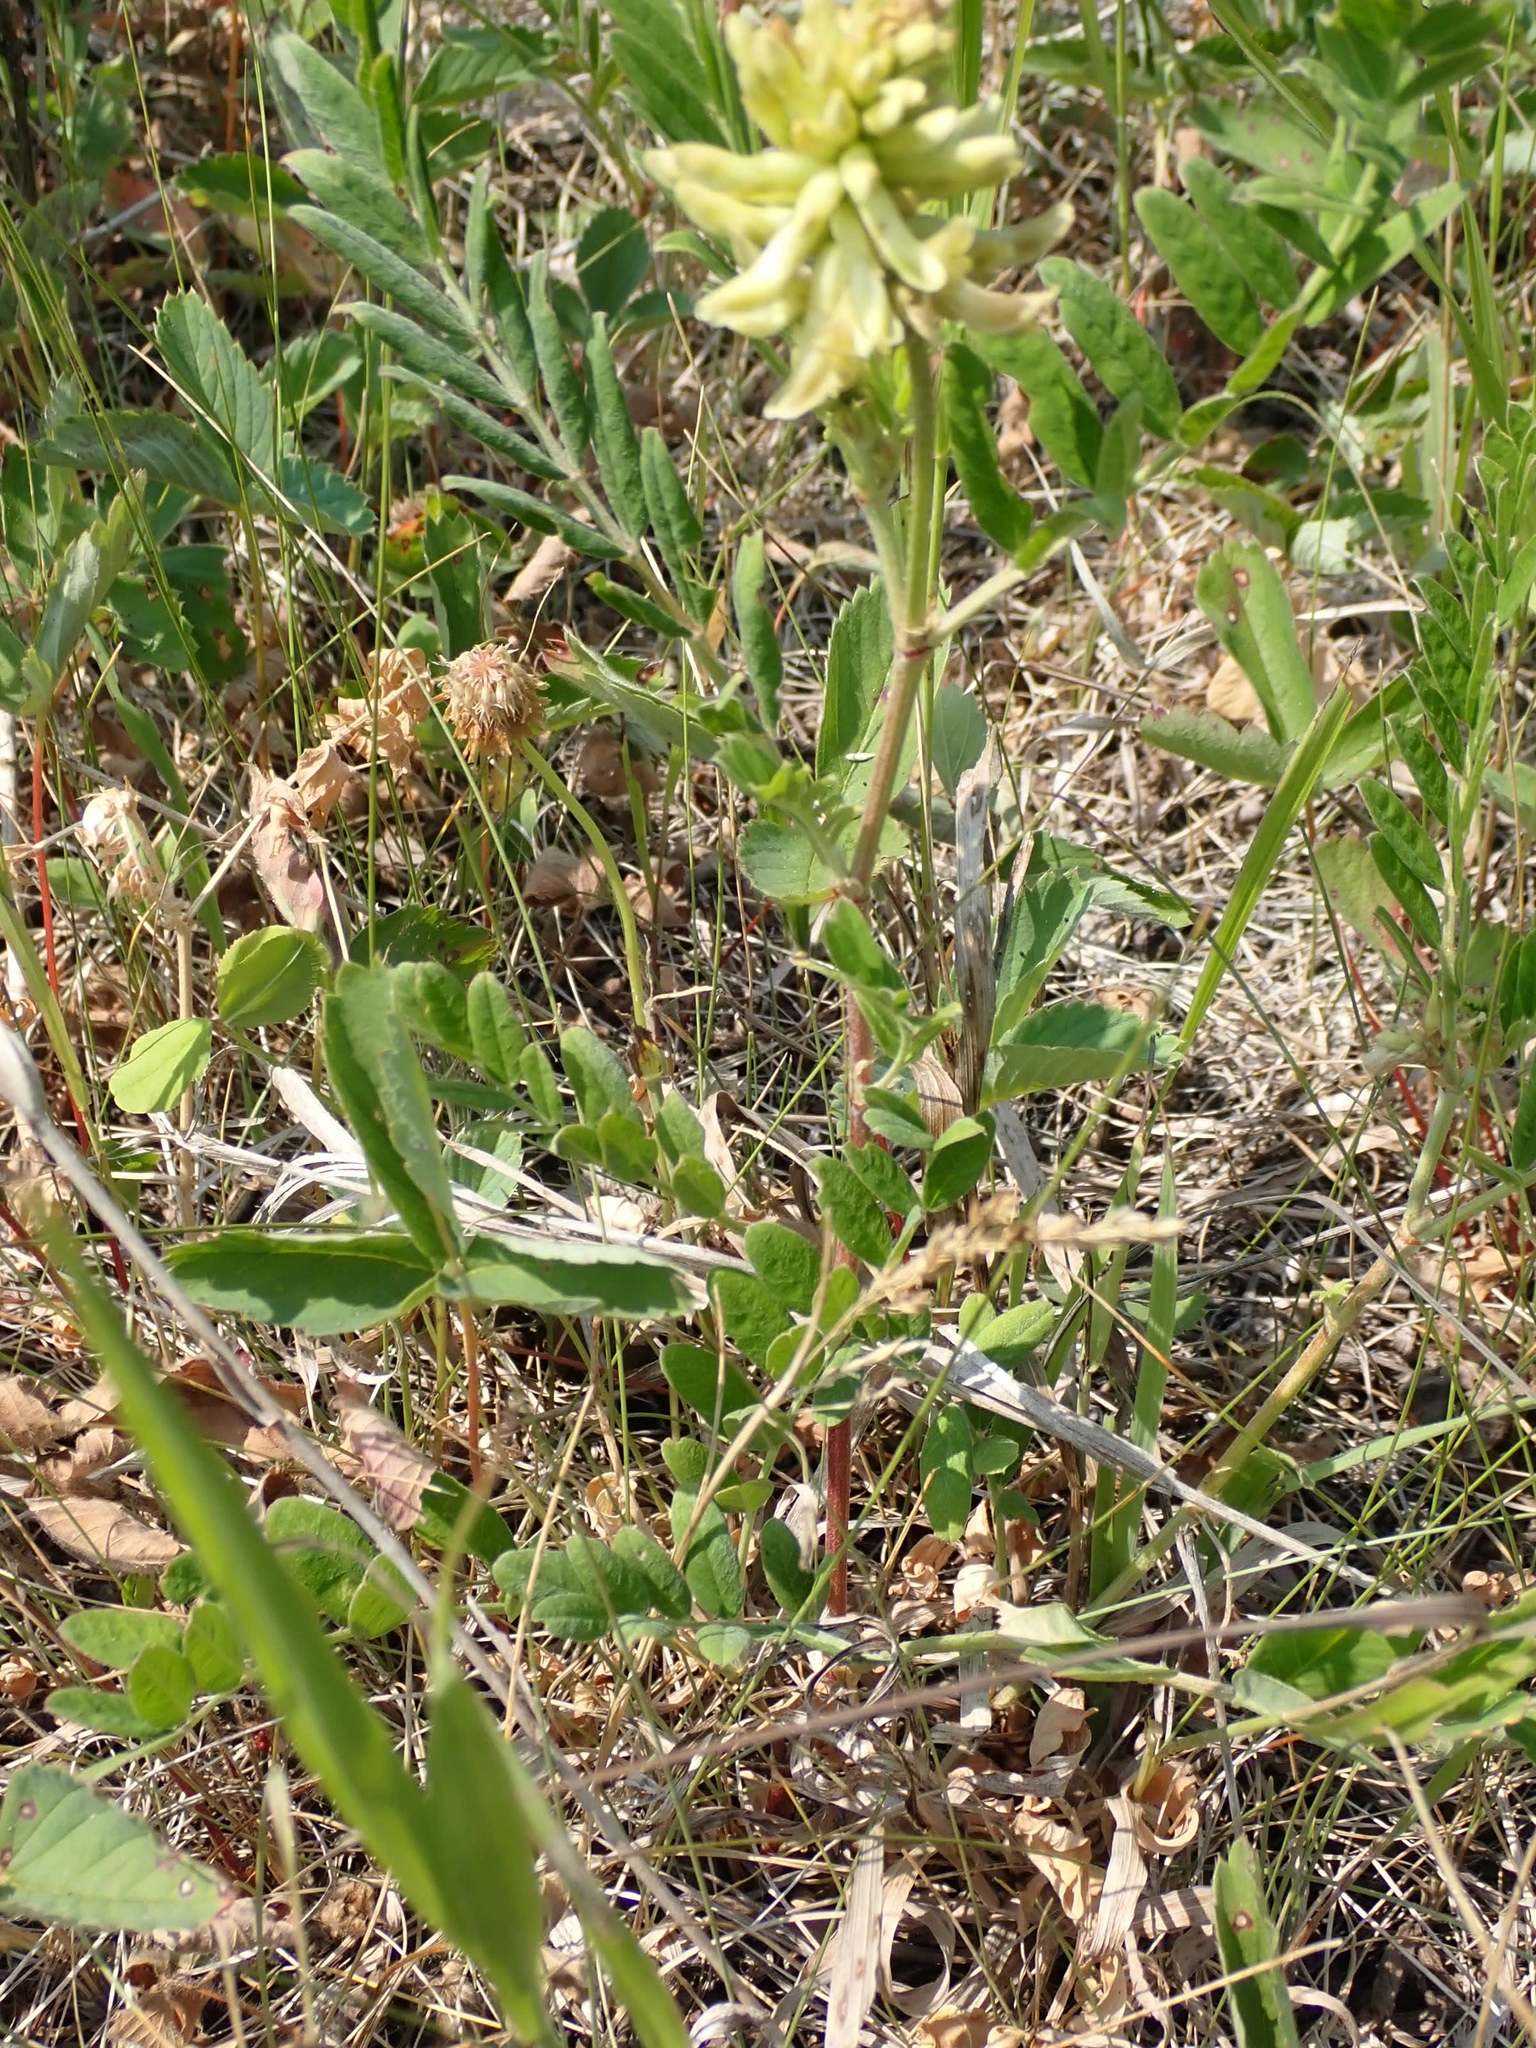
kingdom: Plantae
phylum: Tracheophyta
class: Magnoliopsida
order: Fabales
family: Fabaceae
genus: Astragalus
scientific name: Astragalus canadensis
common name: Canada milk-vetch
